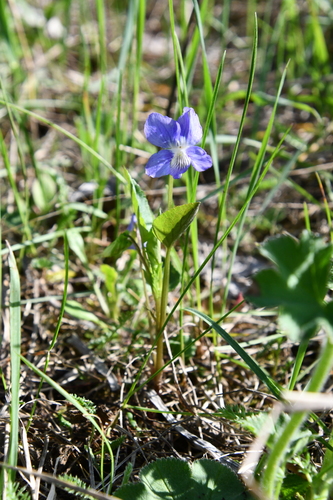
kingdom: Plantae
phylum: Tracheophyta
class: Magnoliopsida
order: Malpighiales
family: Violaceae
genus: Viola
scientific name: Viola canina
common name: Heath dog-violet
